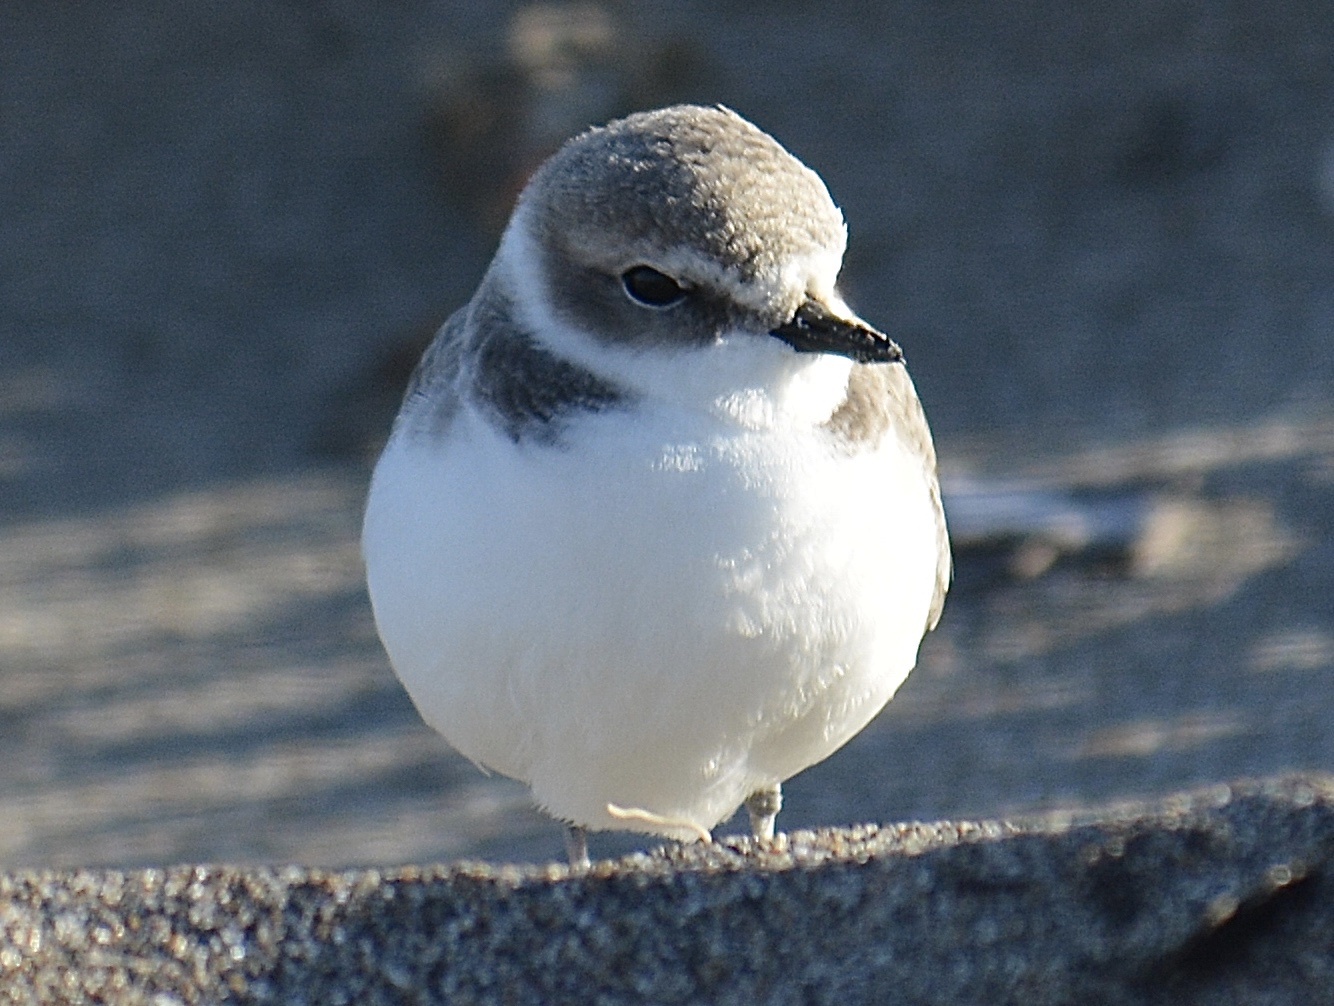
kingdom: Animalia
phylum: Chordata
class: Aves
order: Charadriiformes
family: Charadriidae
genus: Anarhynchus
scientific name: Anarhynchus
